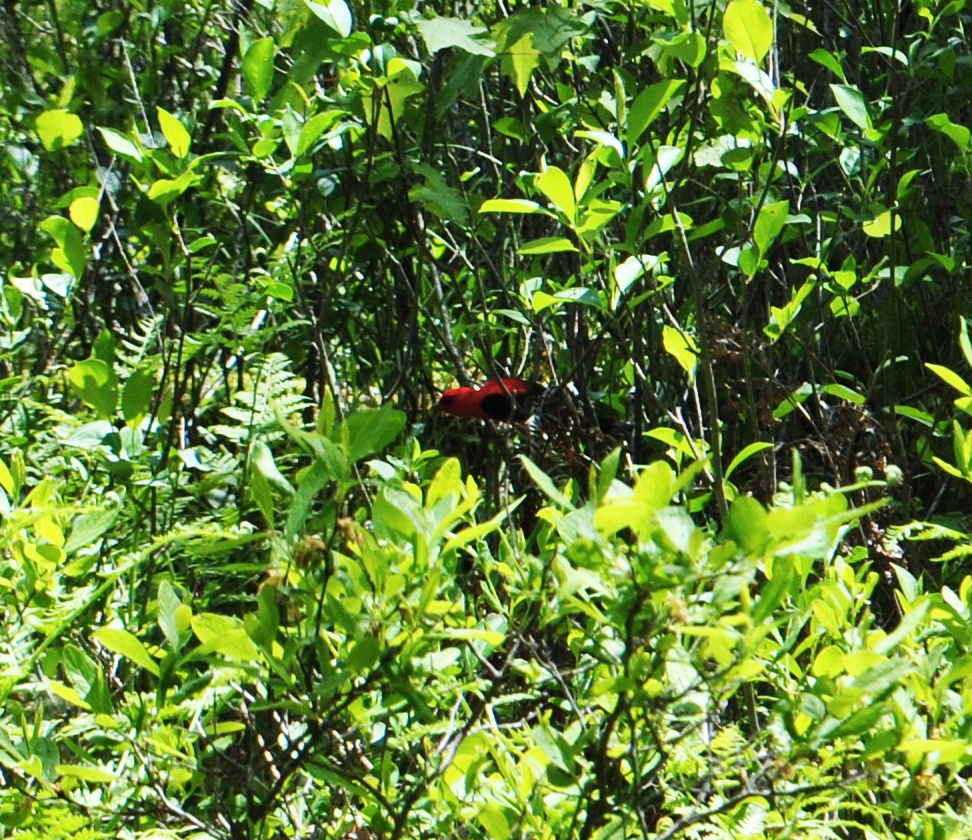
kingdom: Animalia
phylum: Chordata
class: Aves
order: Passeriformes
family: Cardinalidae
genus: Piranga
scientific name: Piranga olivacea
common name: Scarlet tanager
